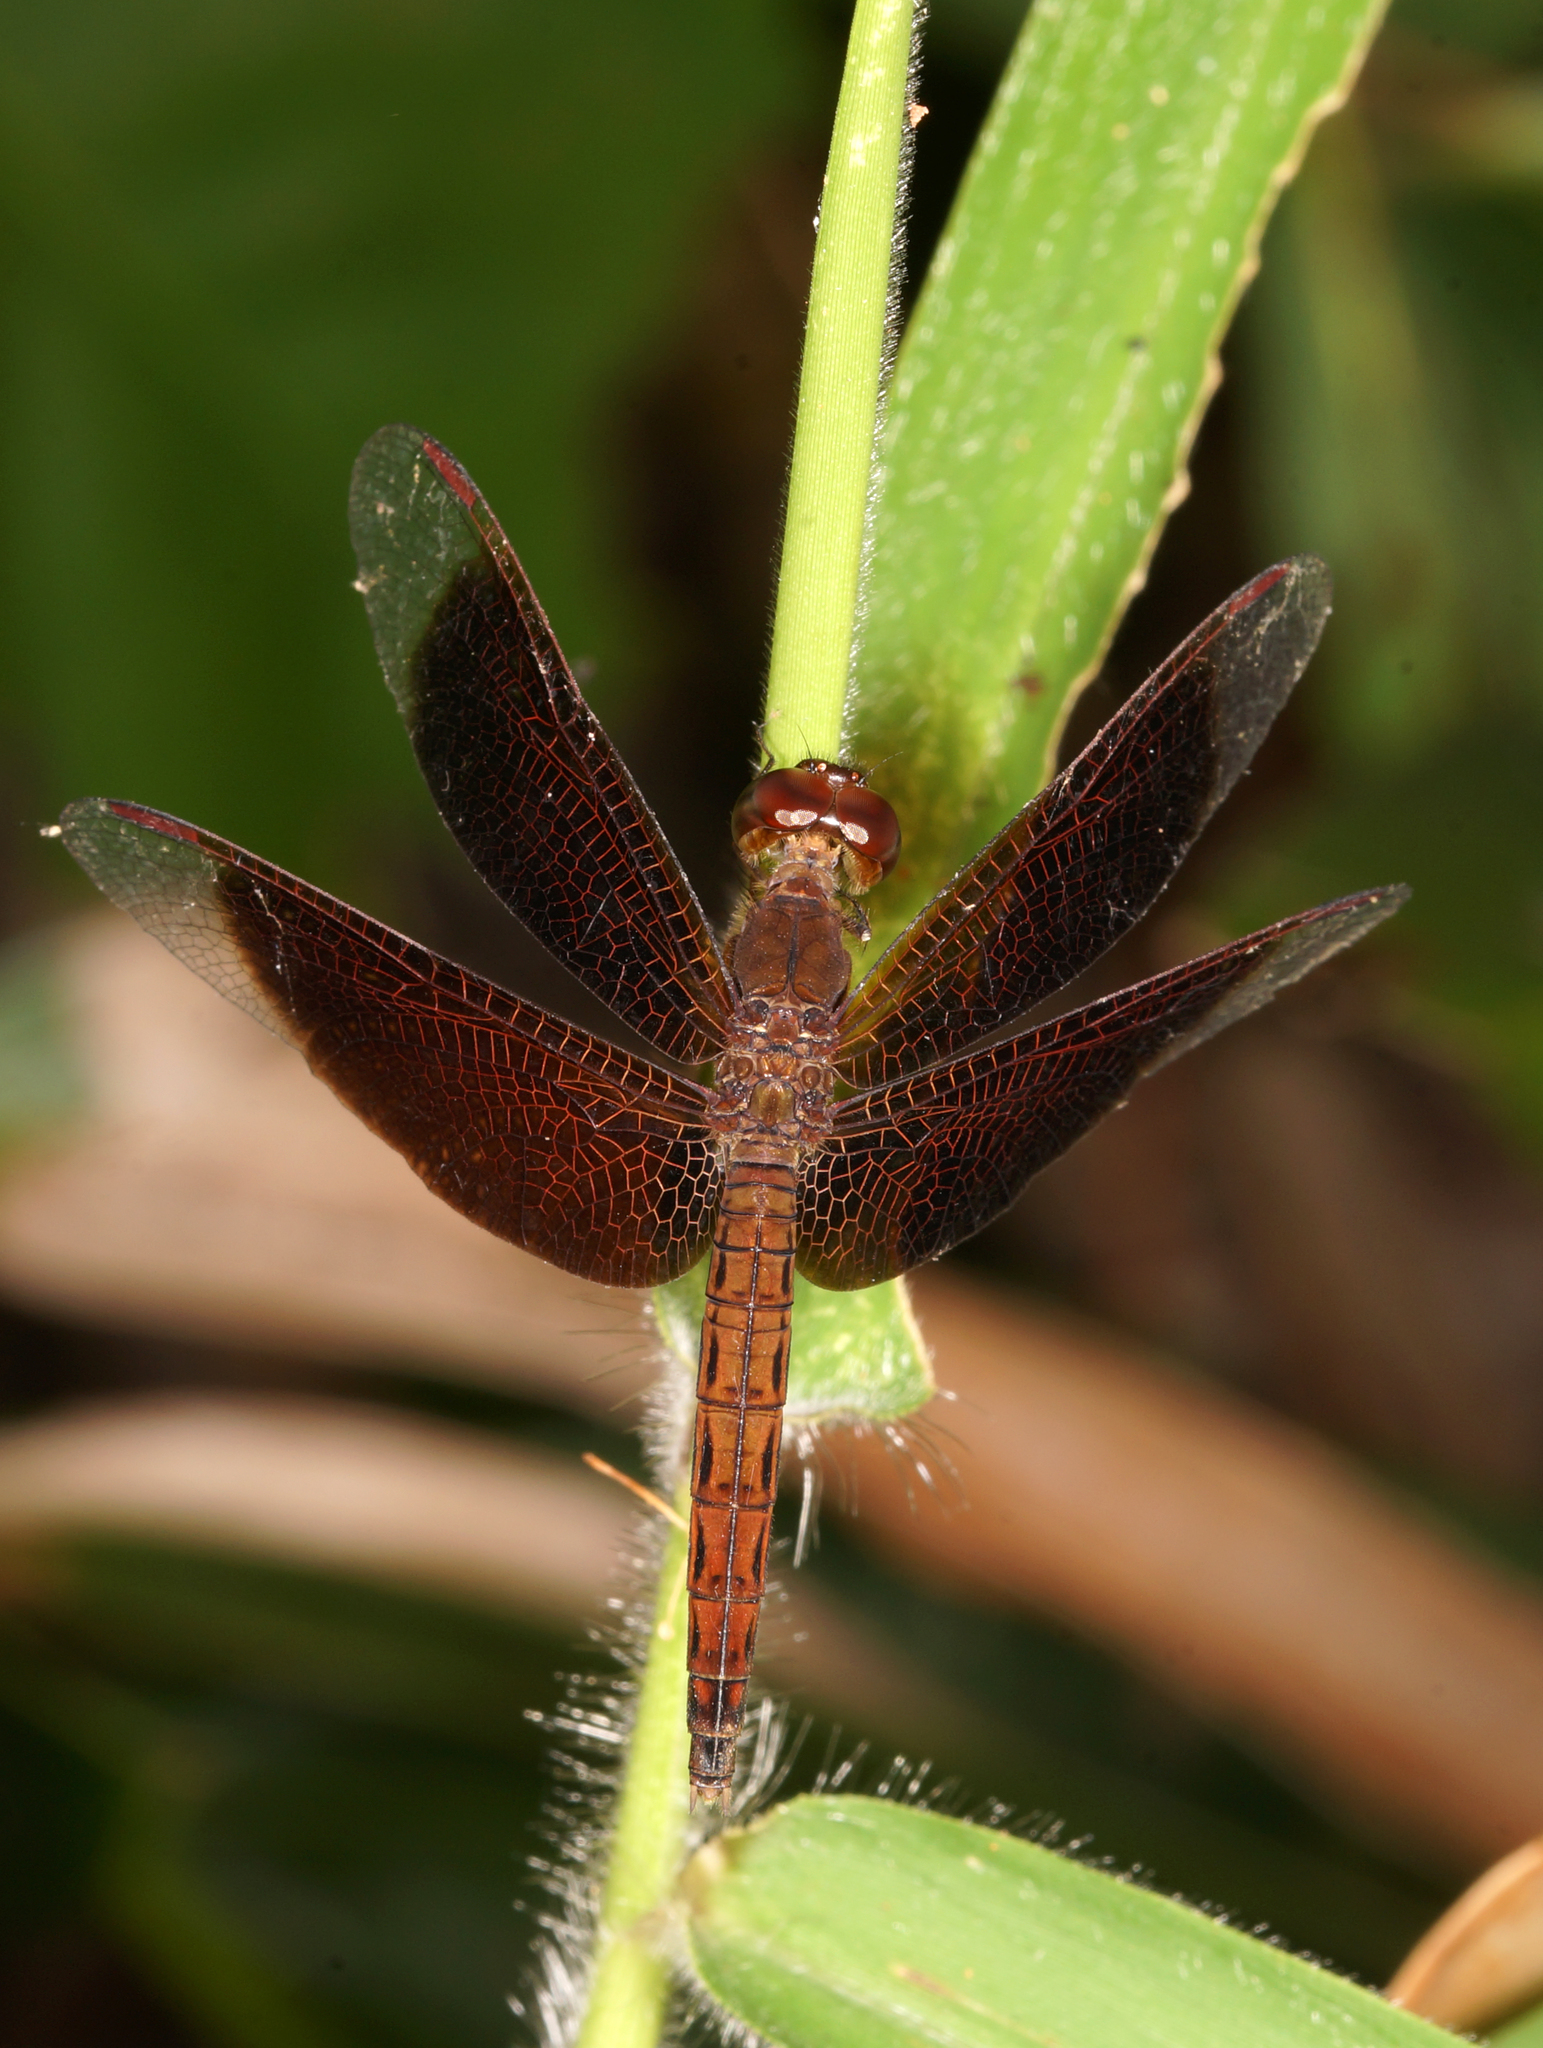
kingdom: Animalia
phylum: Arthropoda
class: Insecta
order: Odonata
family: Libellulidae
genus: Neurothemis
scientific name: Neurothemis fluctuans
